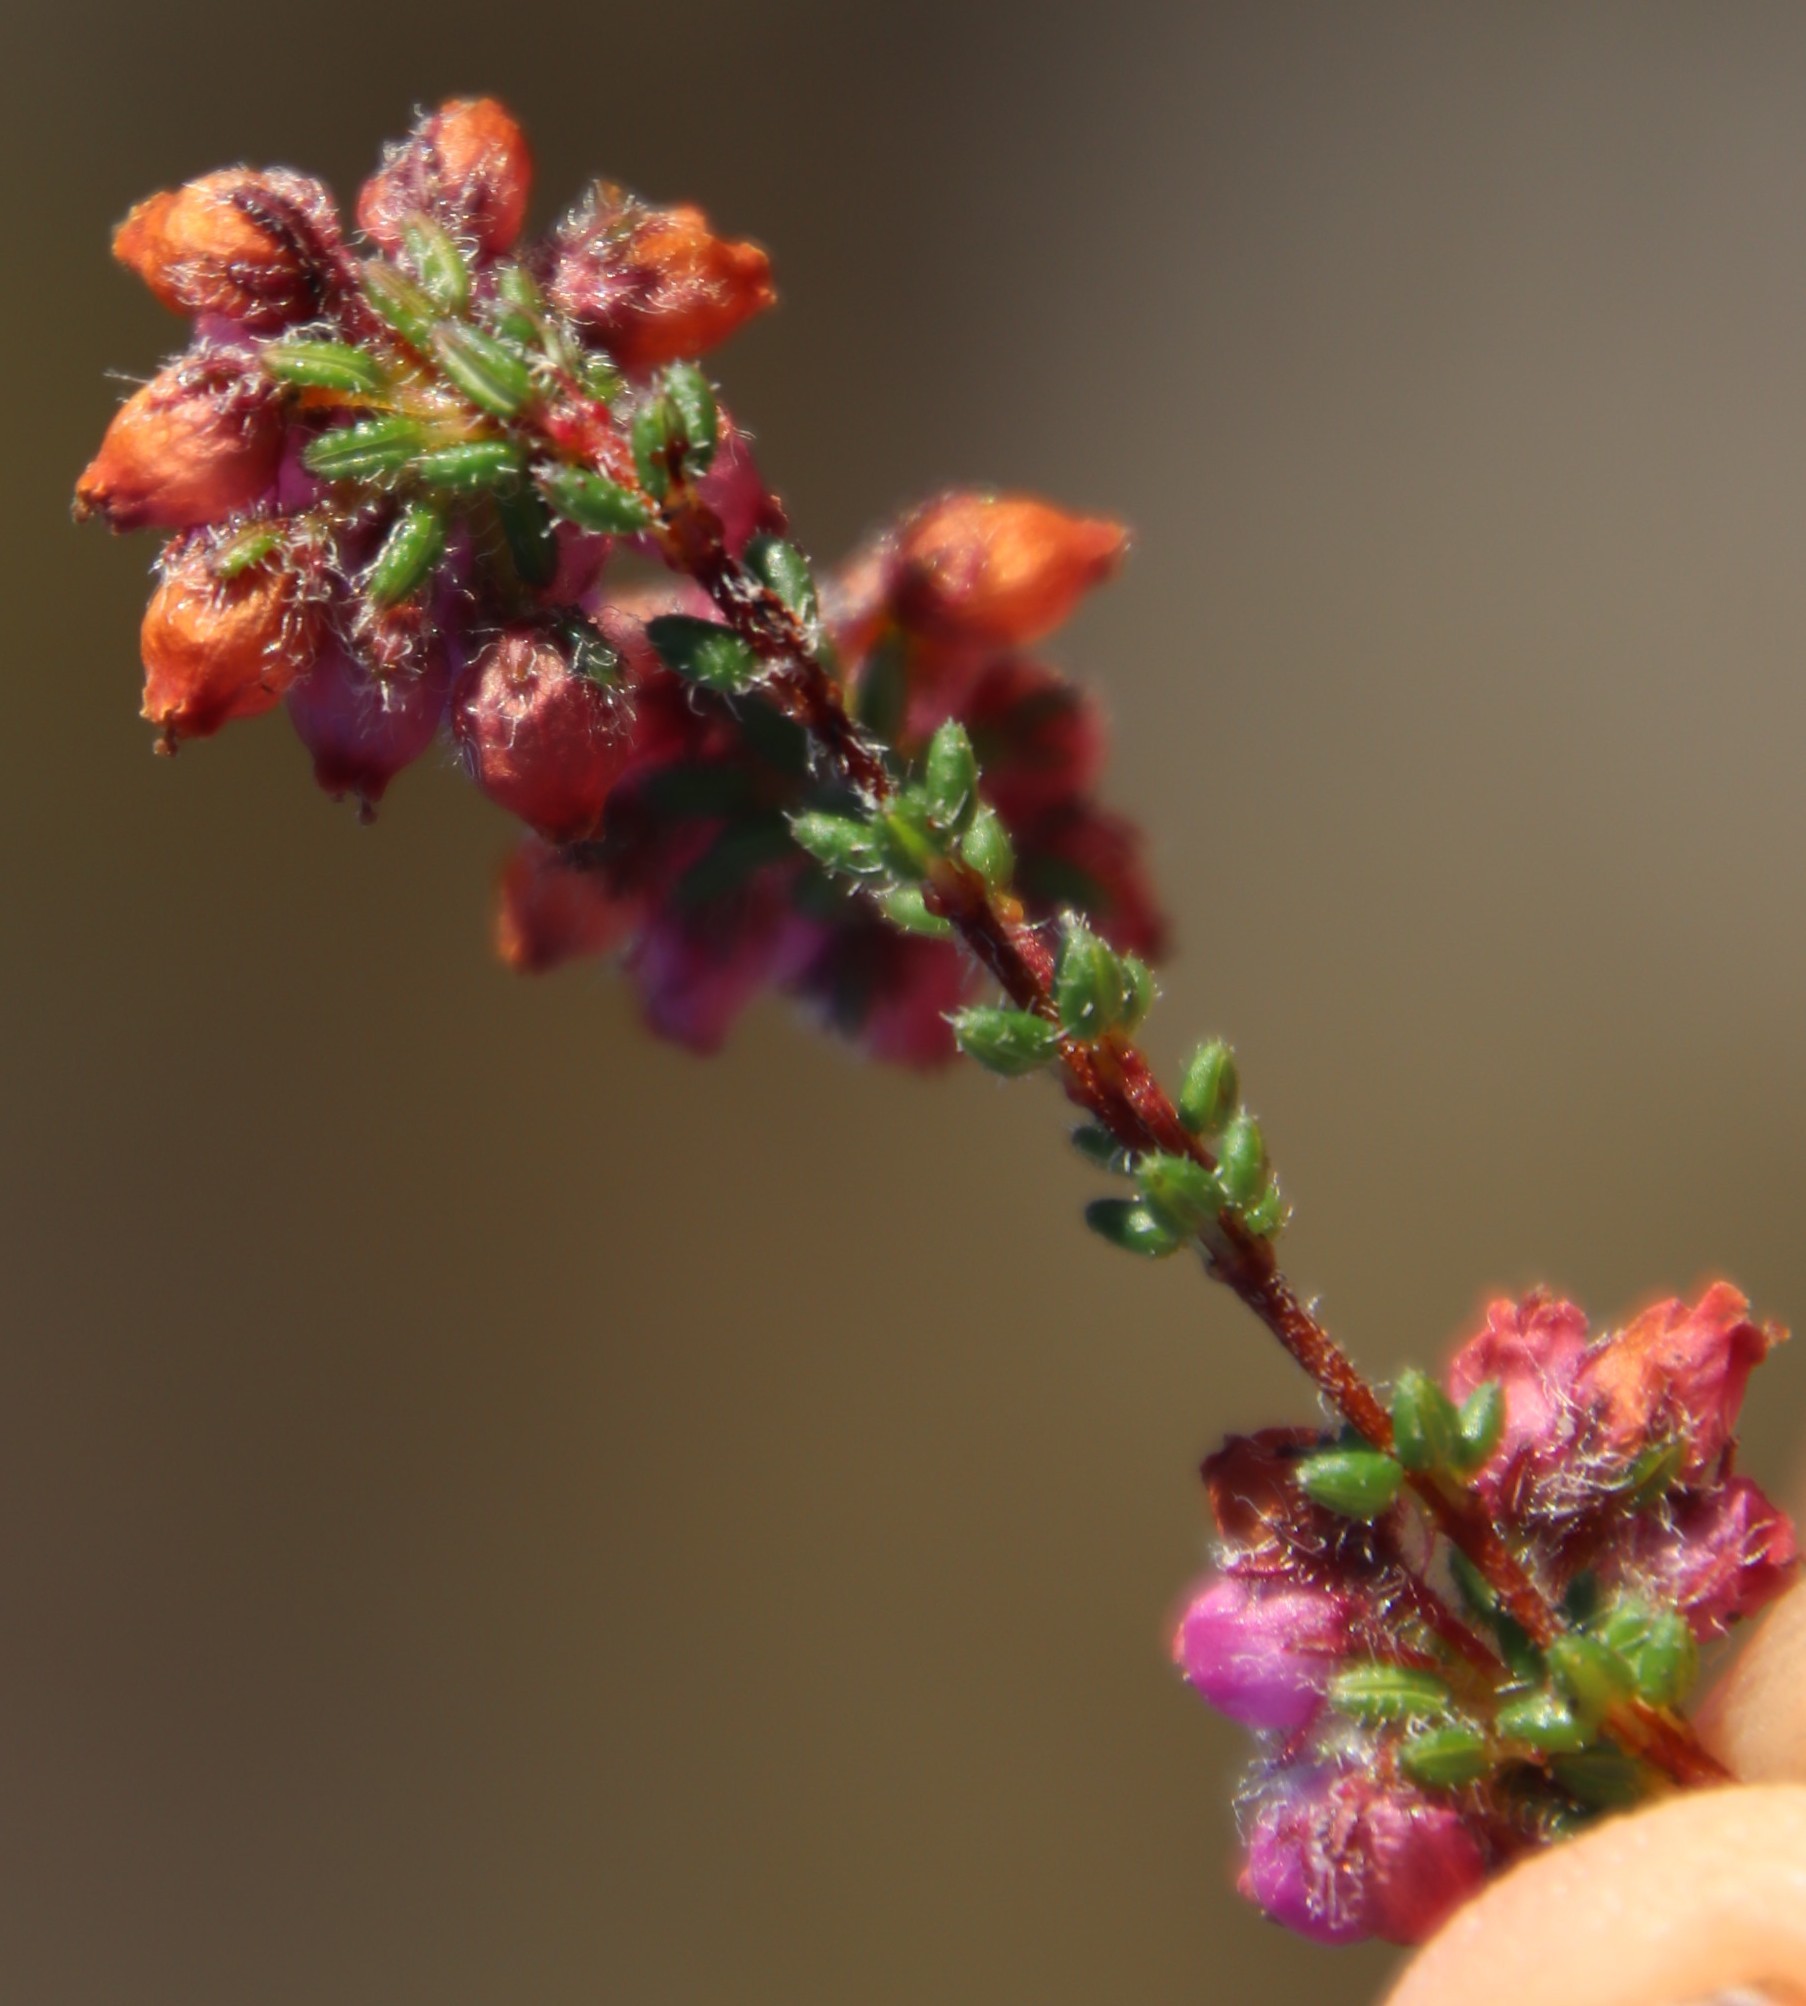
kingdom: Plantae
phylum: Tracheophyta
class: Magnoliopsida
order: Ericales
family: Ericaceae
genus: Erica
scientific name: Erica clavisepala
